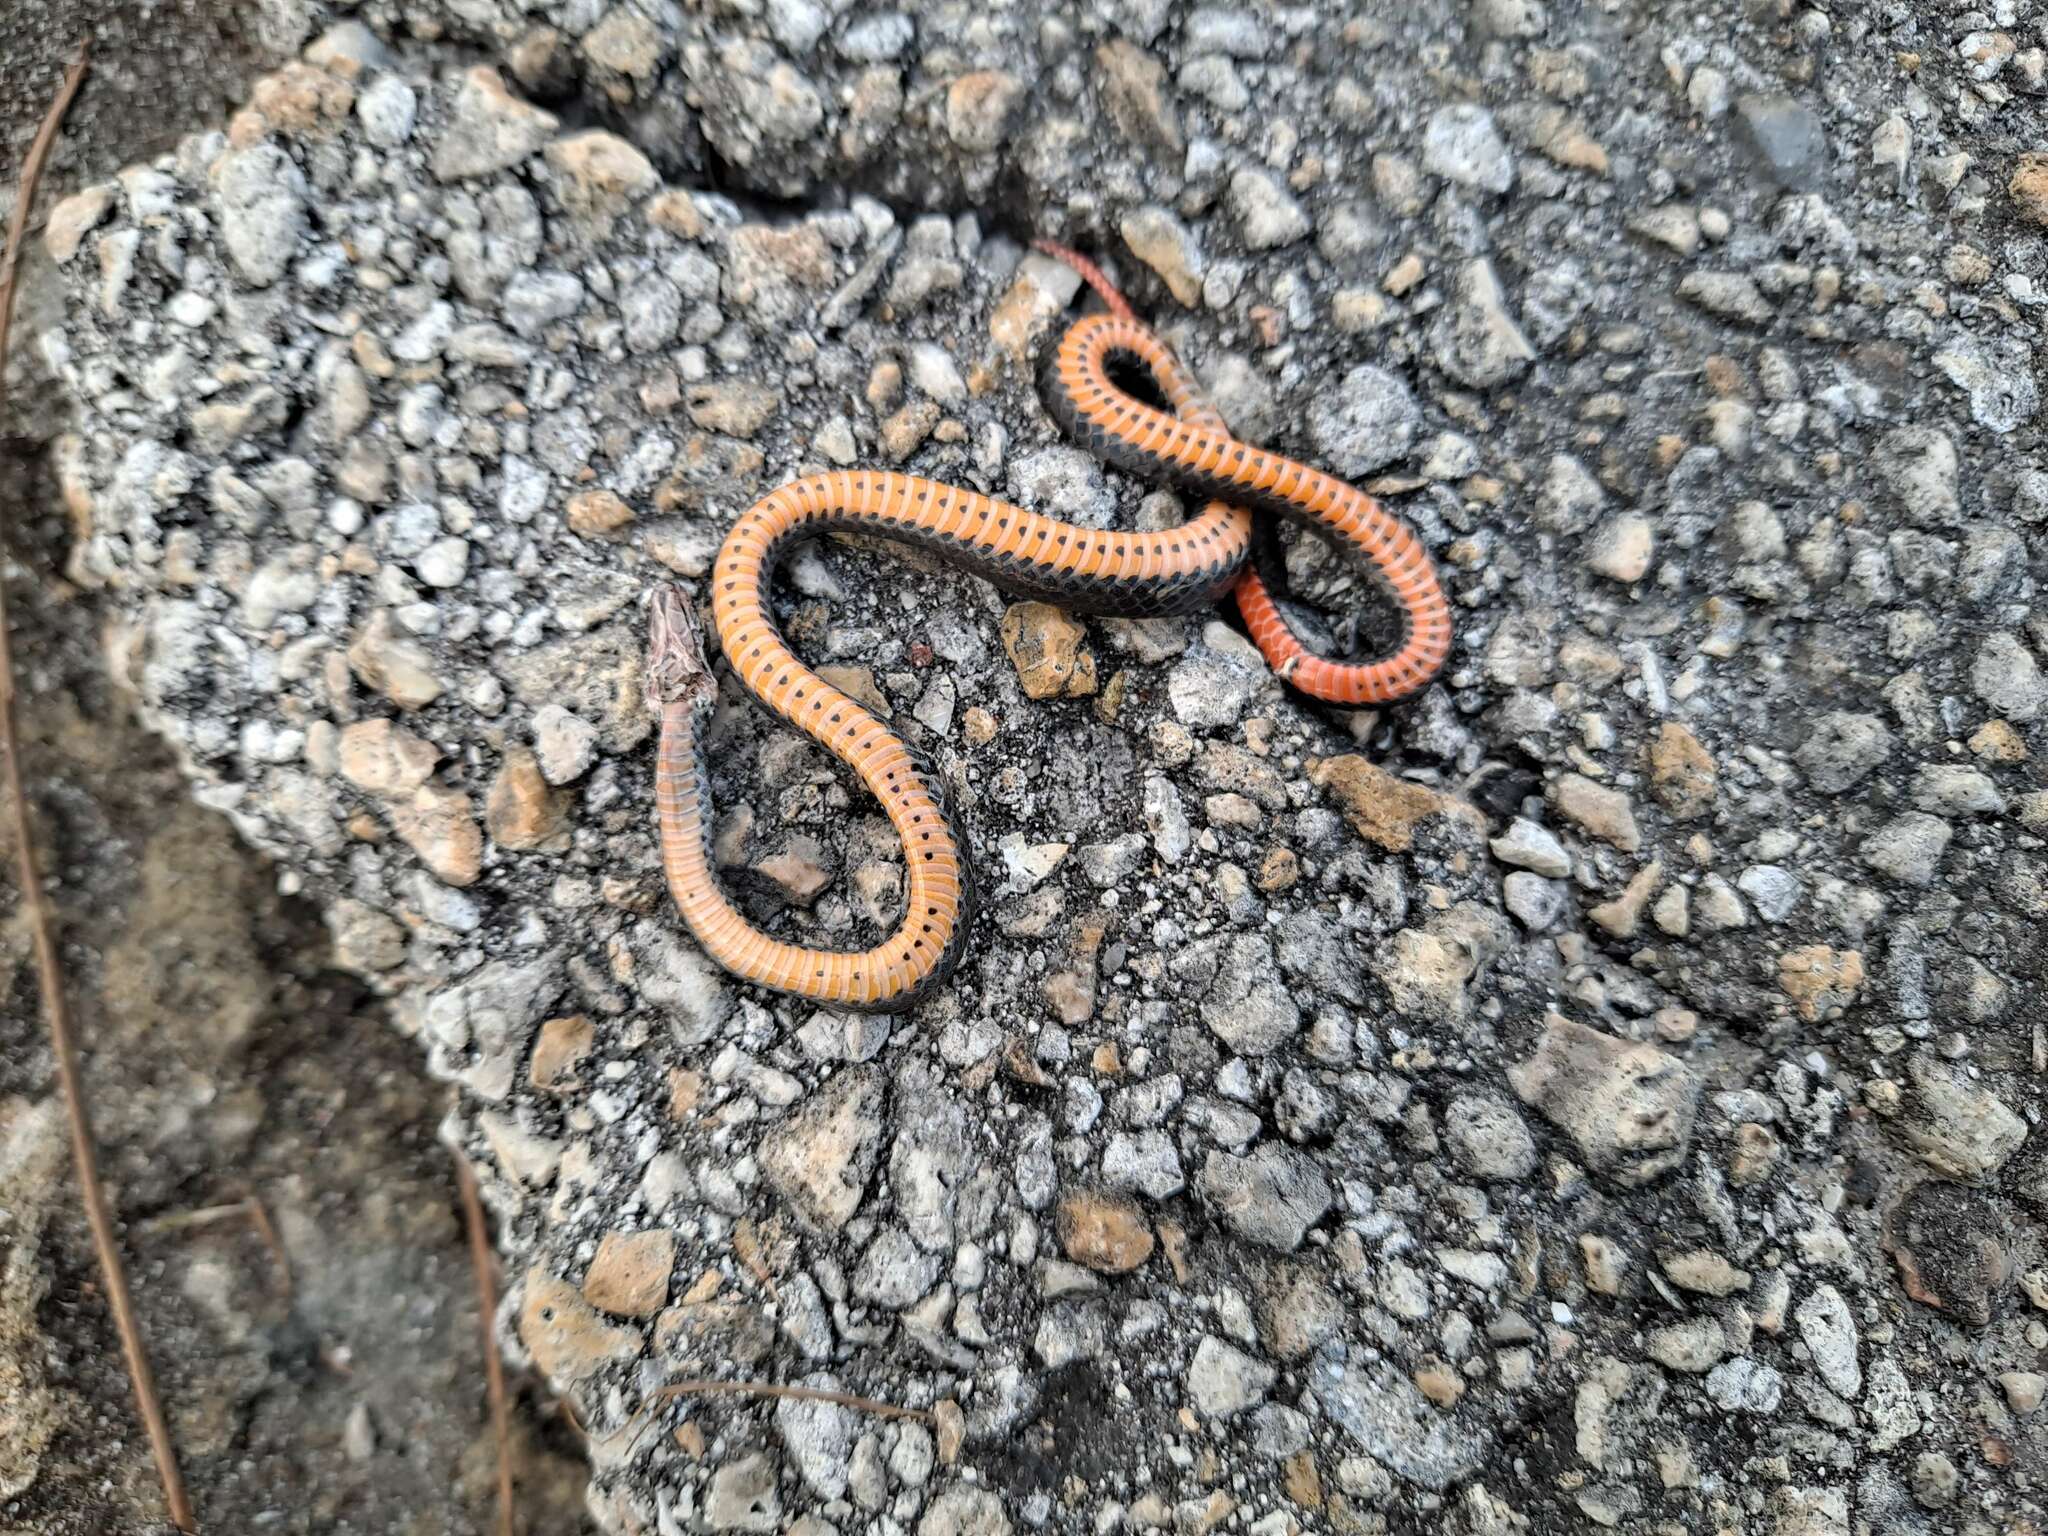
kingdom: Animalia
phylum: Chordata
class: Squamata
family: Colubridae
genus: Diadophis
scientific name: Diadophis punctatus
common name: Ringneck snake
